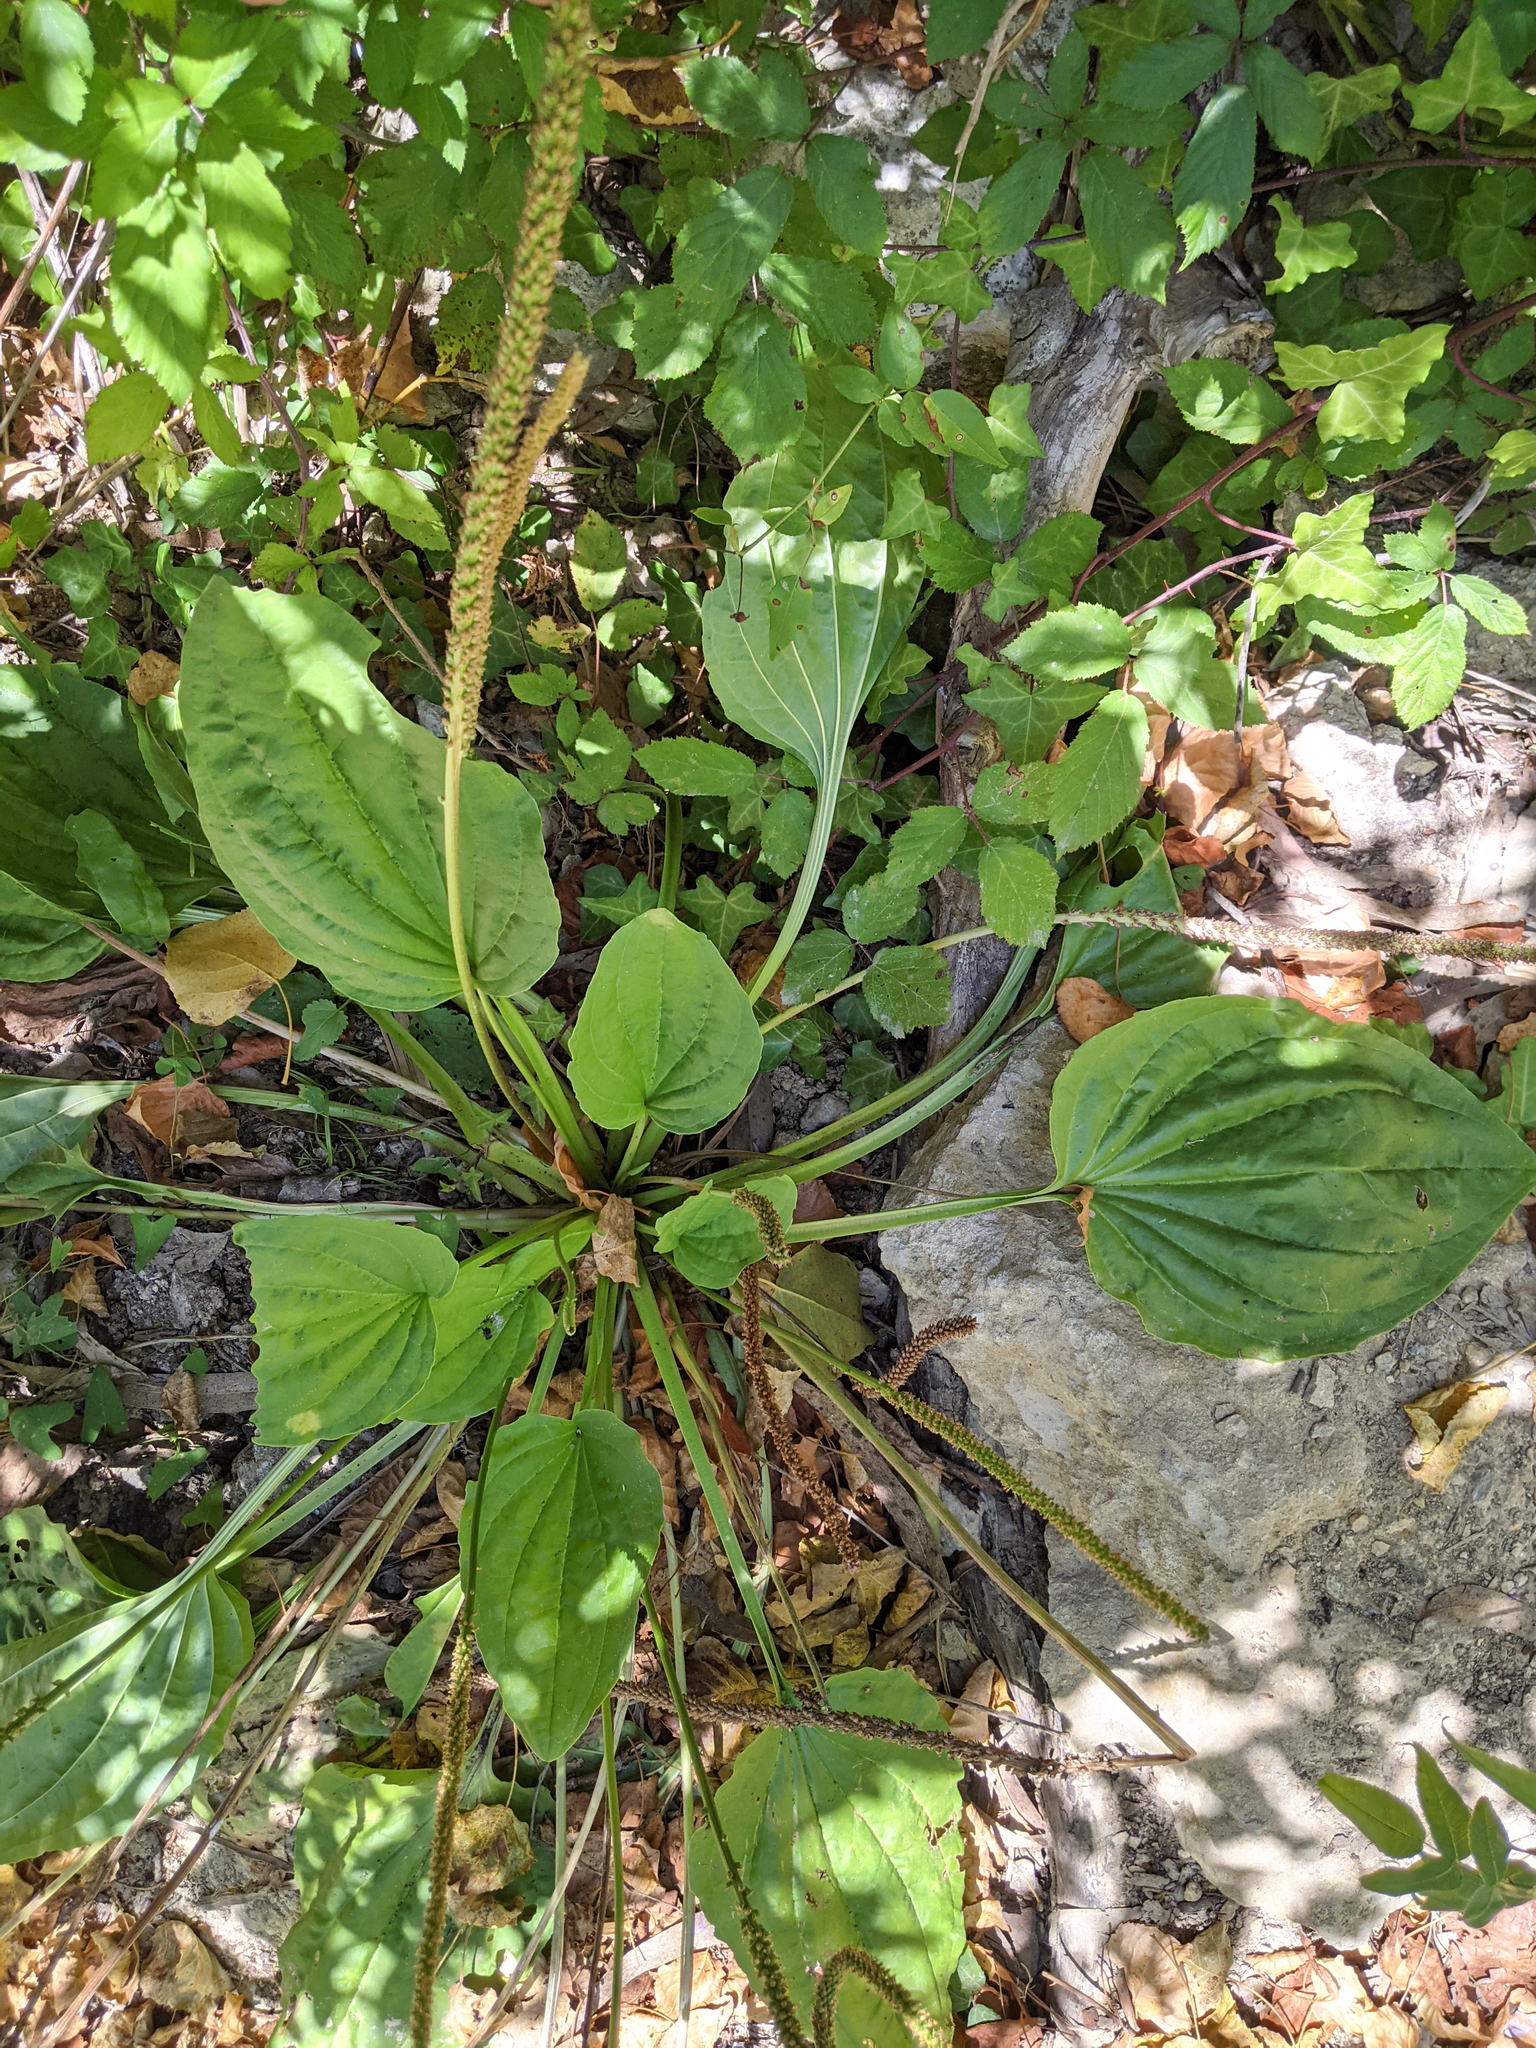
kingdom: Plantae
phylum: Tracheophyta
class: Magnoliopsida
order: Lamiales
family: Plantaginaceae
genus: Plantago
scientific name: Plantago major
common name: Common plantain
